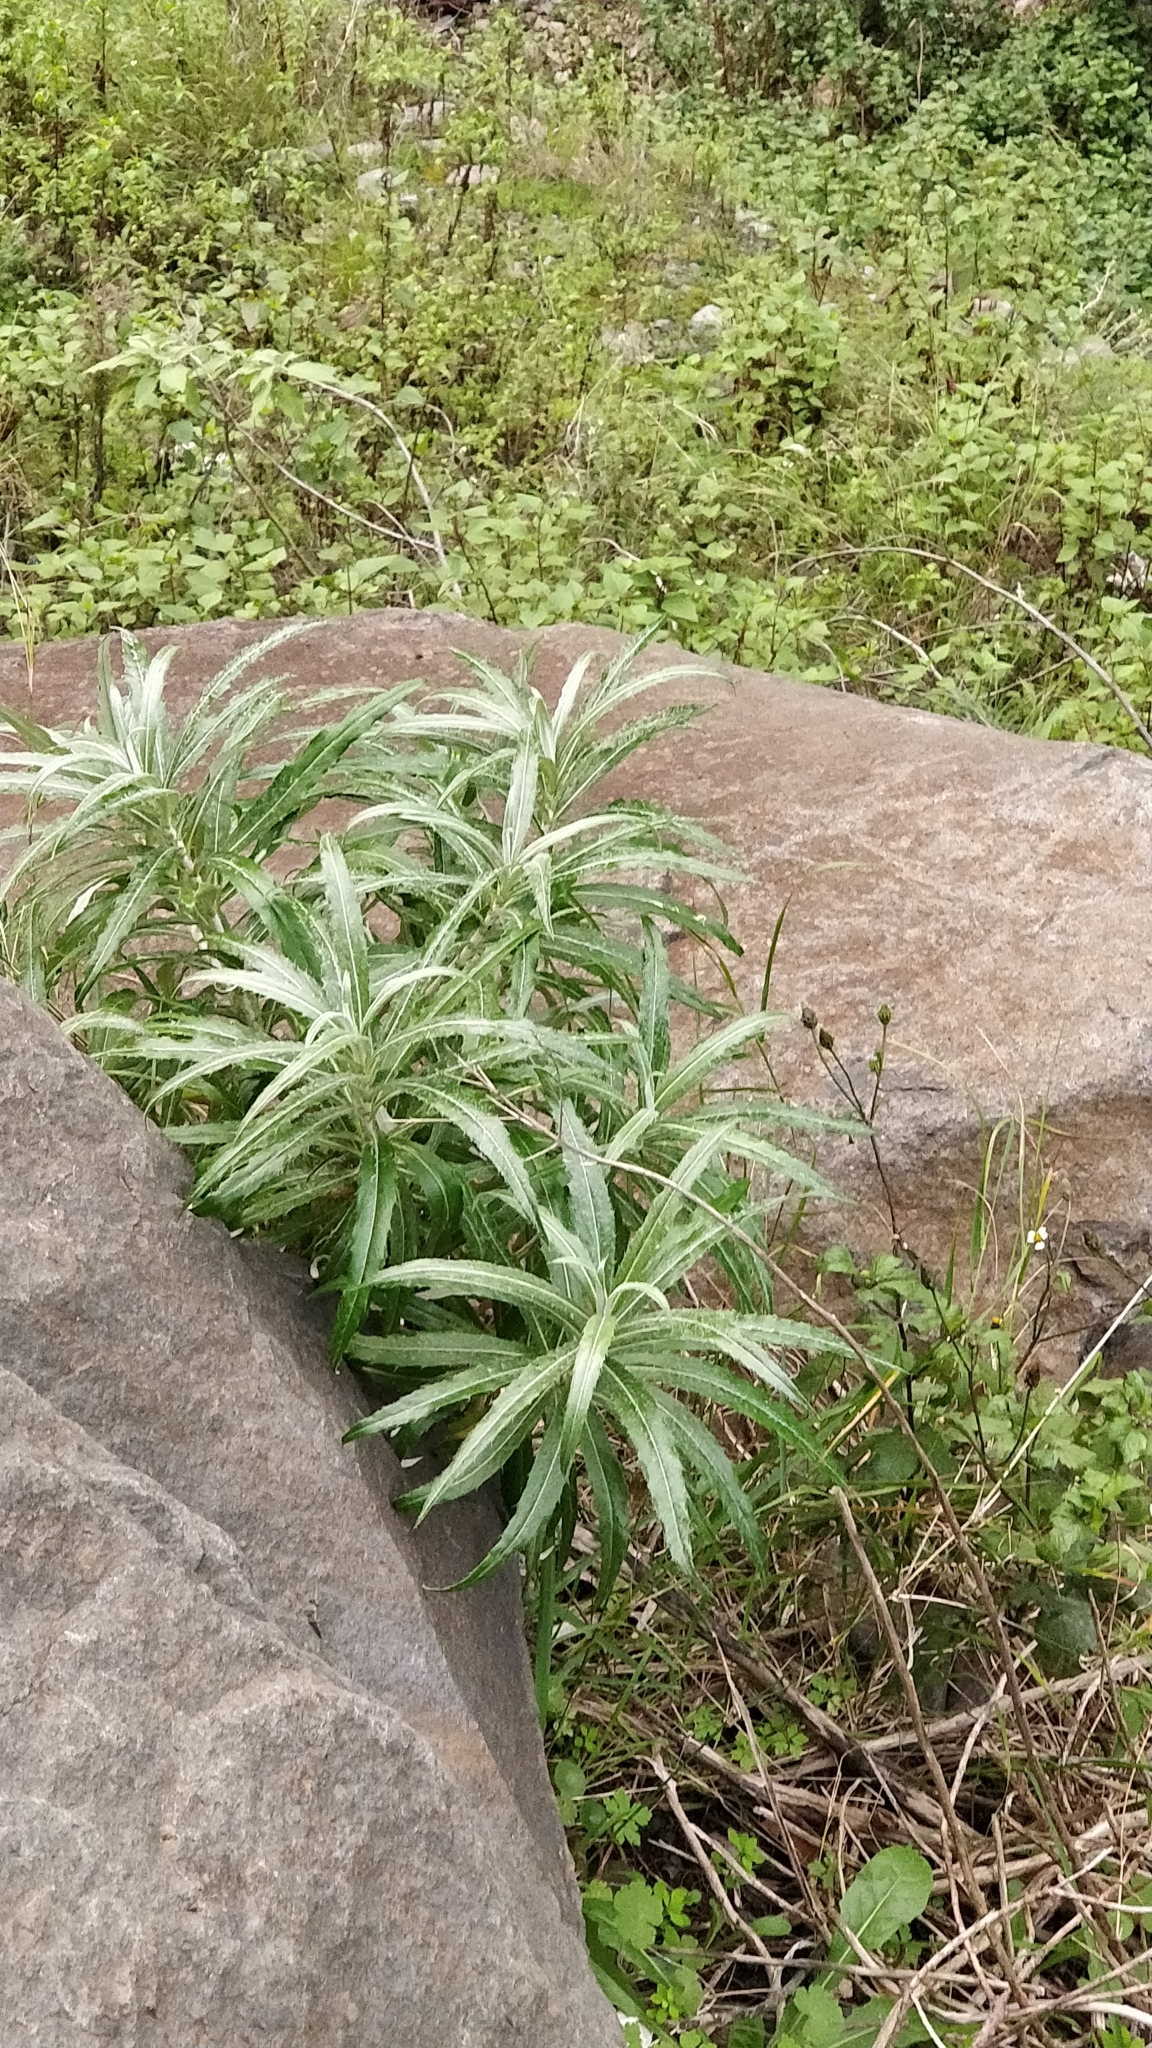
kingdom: Plantae
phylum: Tracheophyta
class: Magnoliopsida
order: Asterales
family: Asteraceae
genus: Carlina
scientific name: Carlina salicifolia
